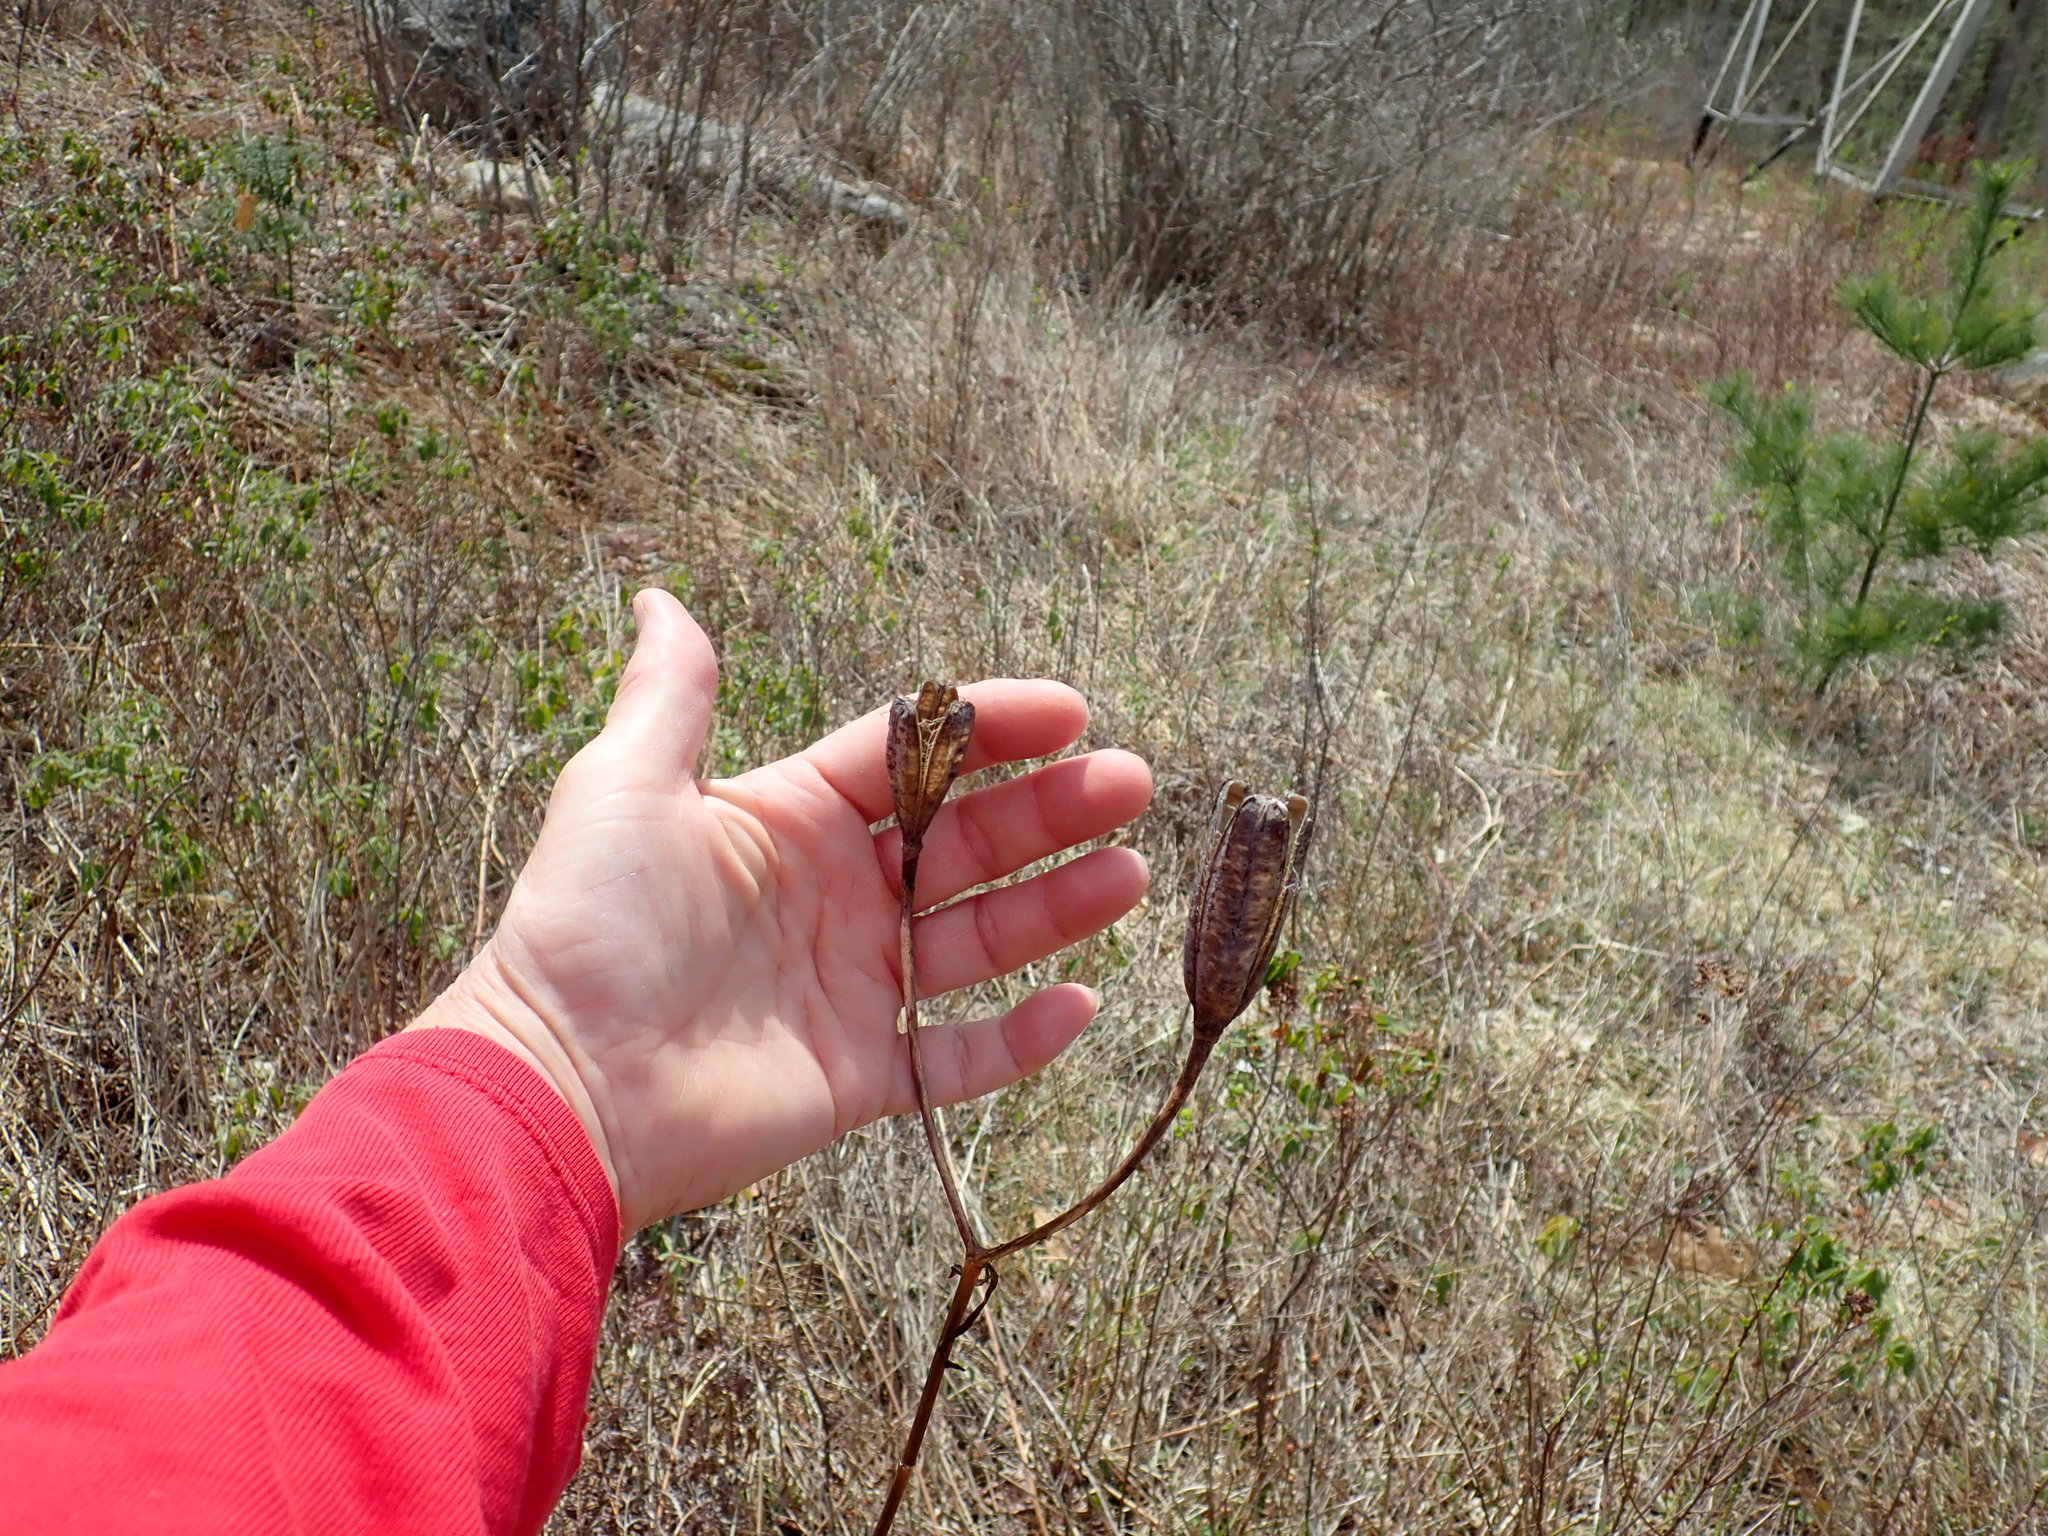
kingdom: Plantae
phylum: Tracheophyta
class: Liliopsida
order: Liliales
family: Liliaceae
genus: Lilium
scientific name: Lilium
